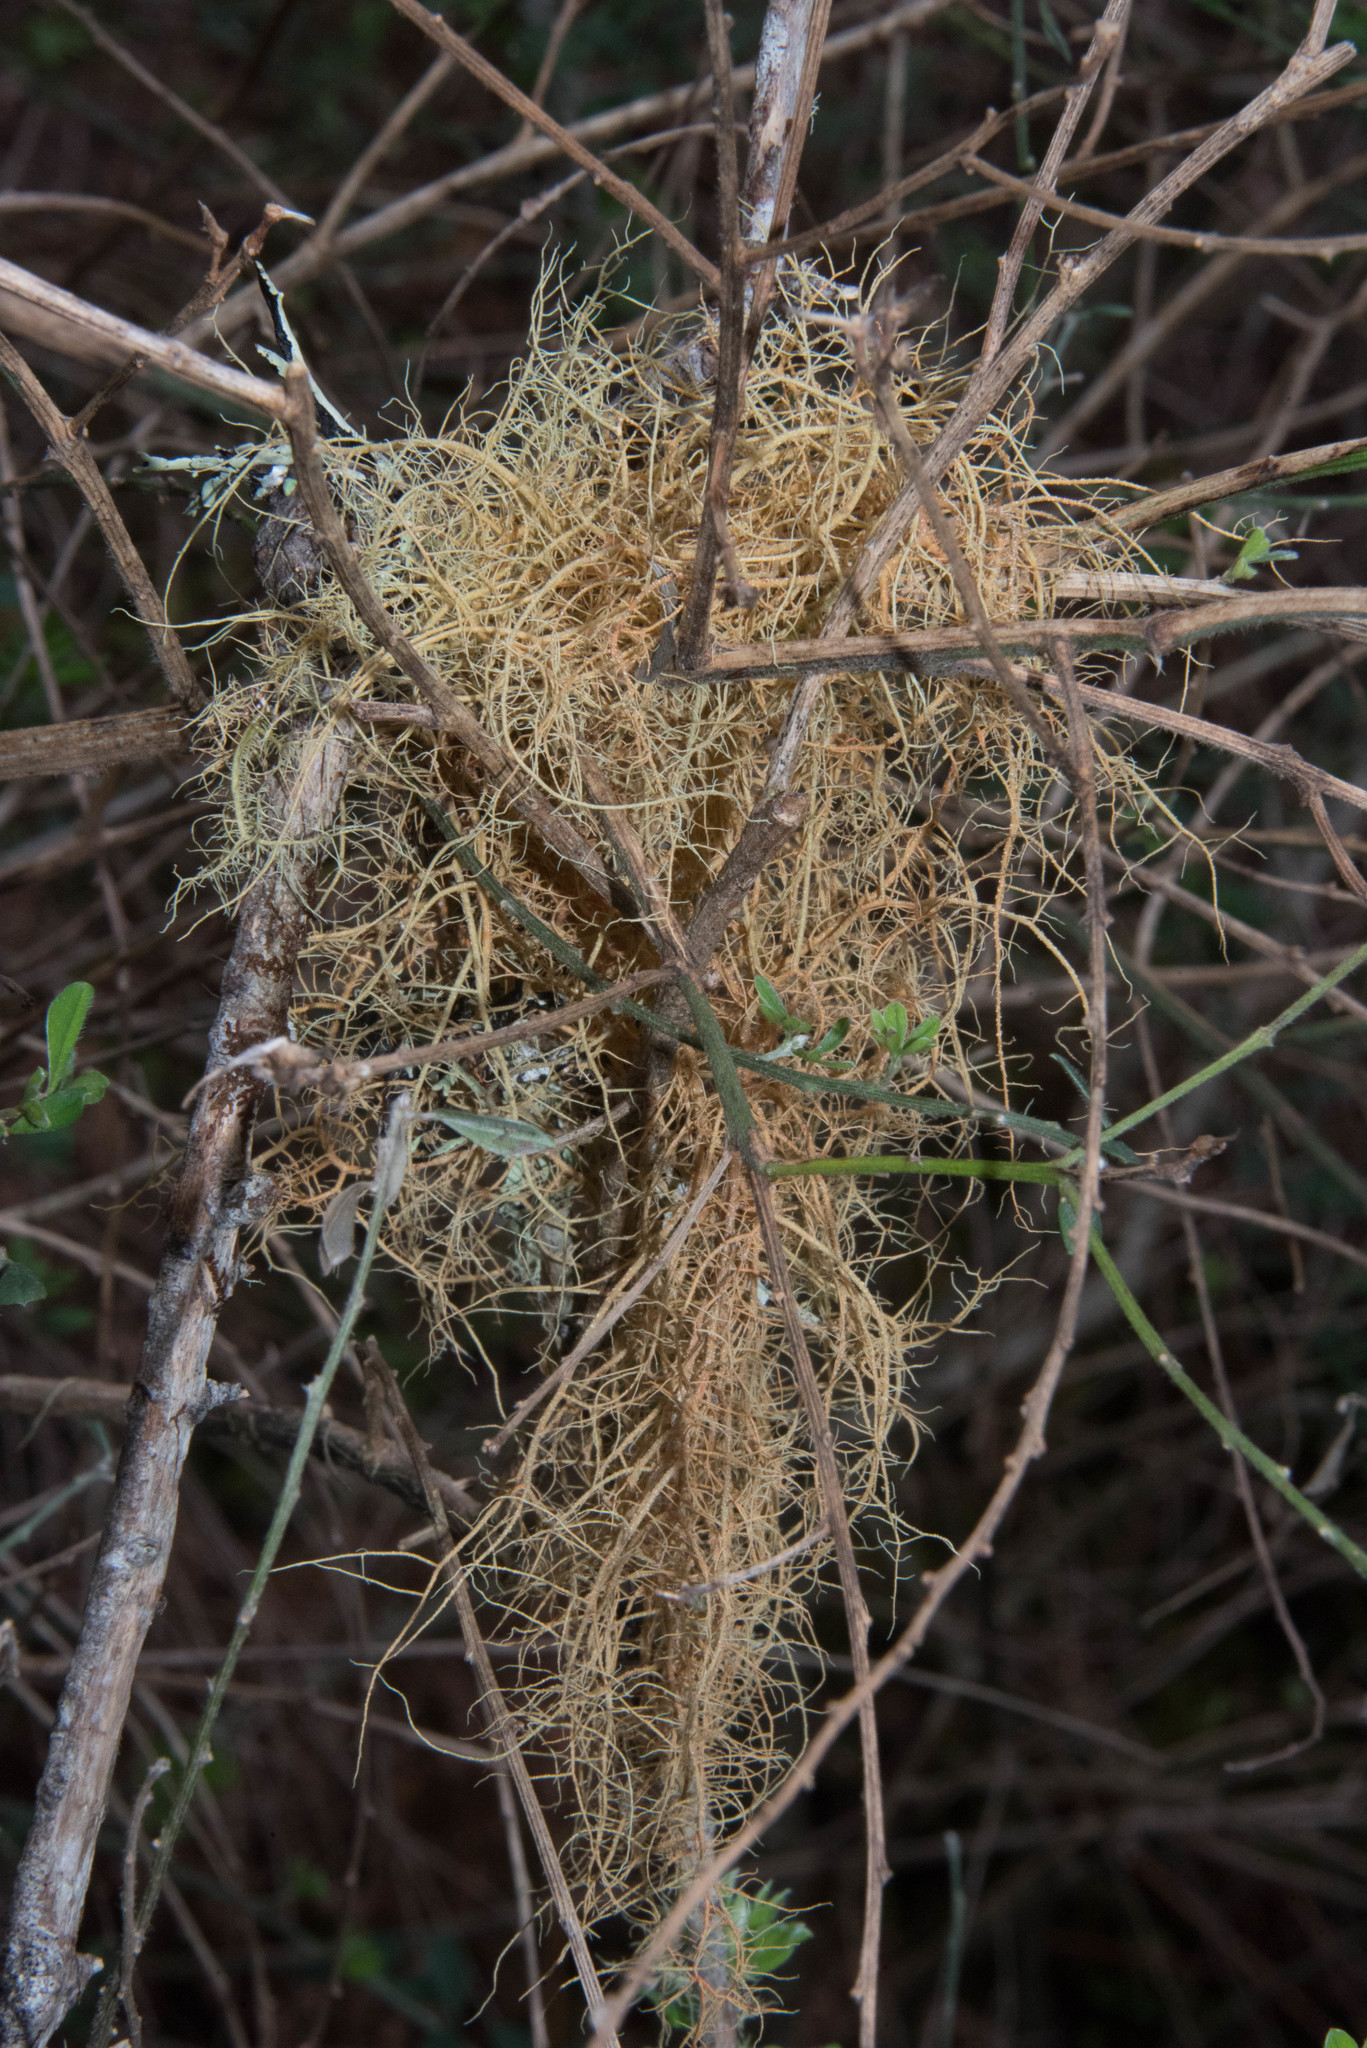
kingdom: Fungi
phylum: Ascomycota
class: Lecanoromycetes
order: Lecanorales
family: Parmeliaceae
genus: Usnea
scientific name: Usnea rubicunda
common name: Red beard lichen
